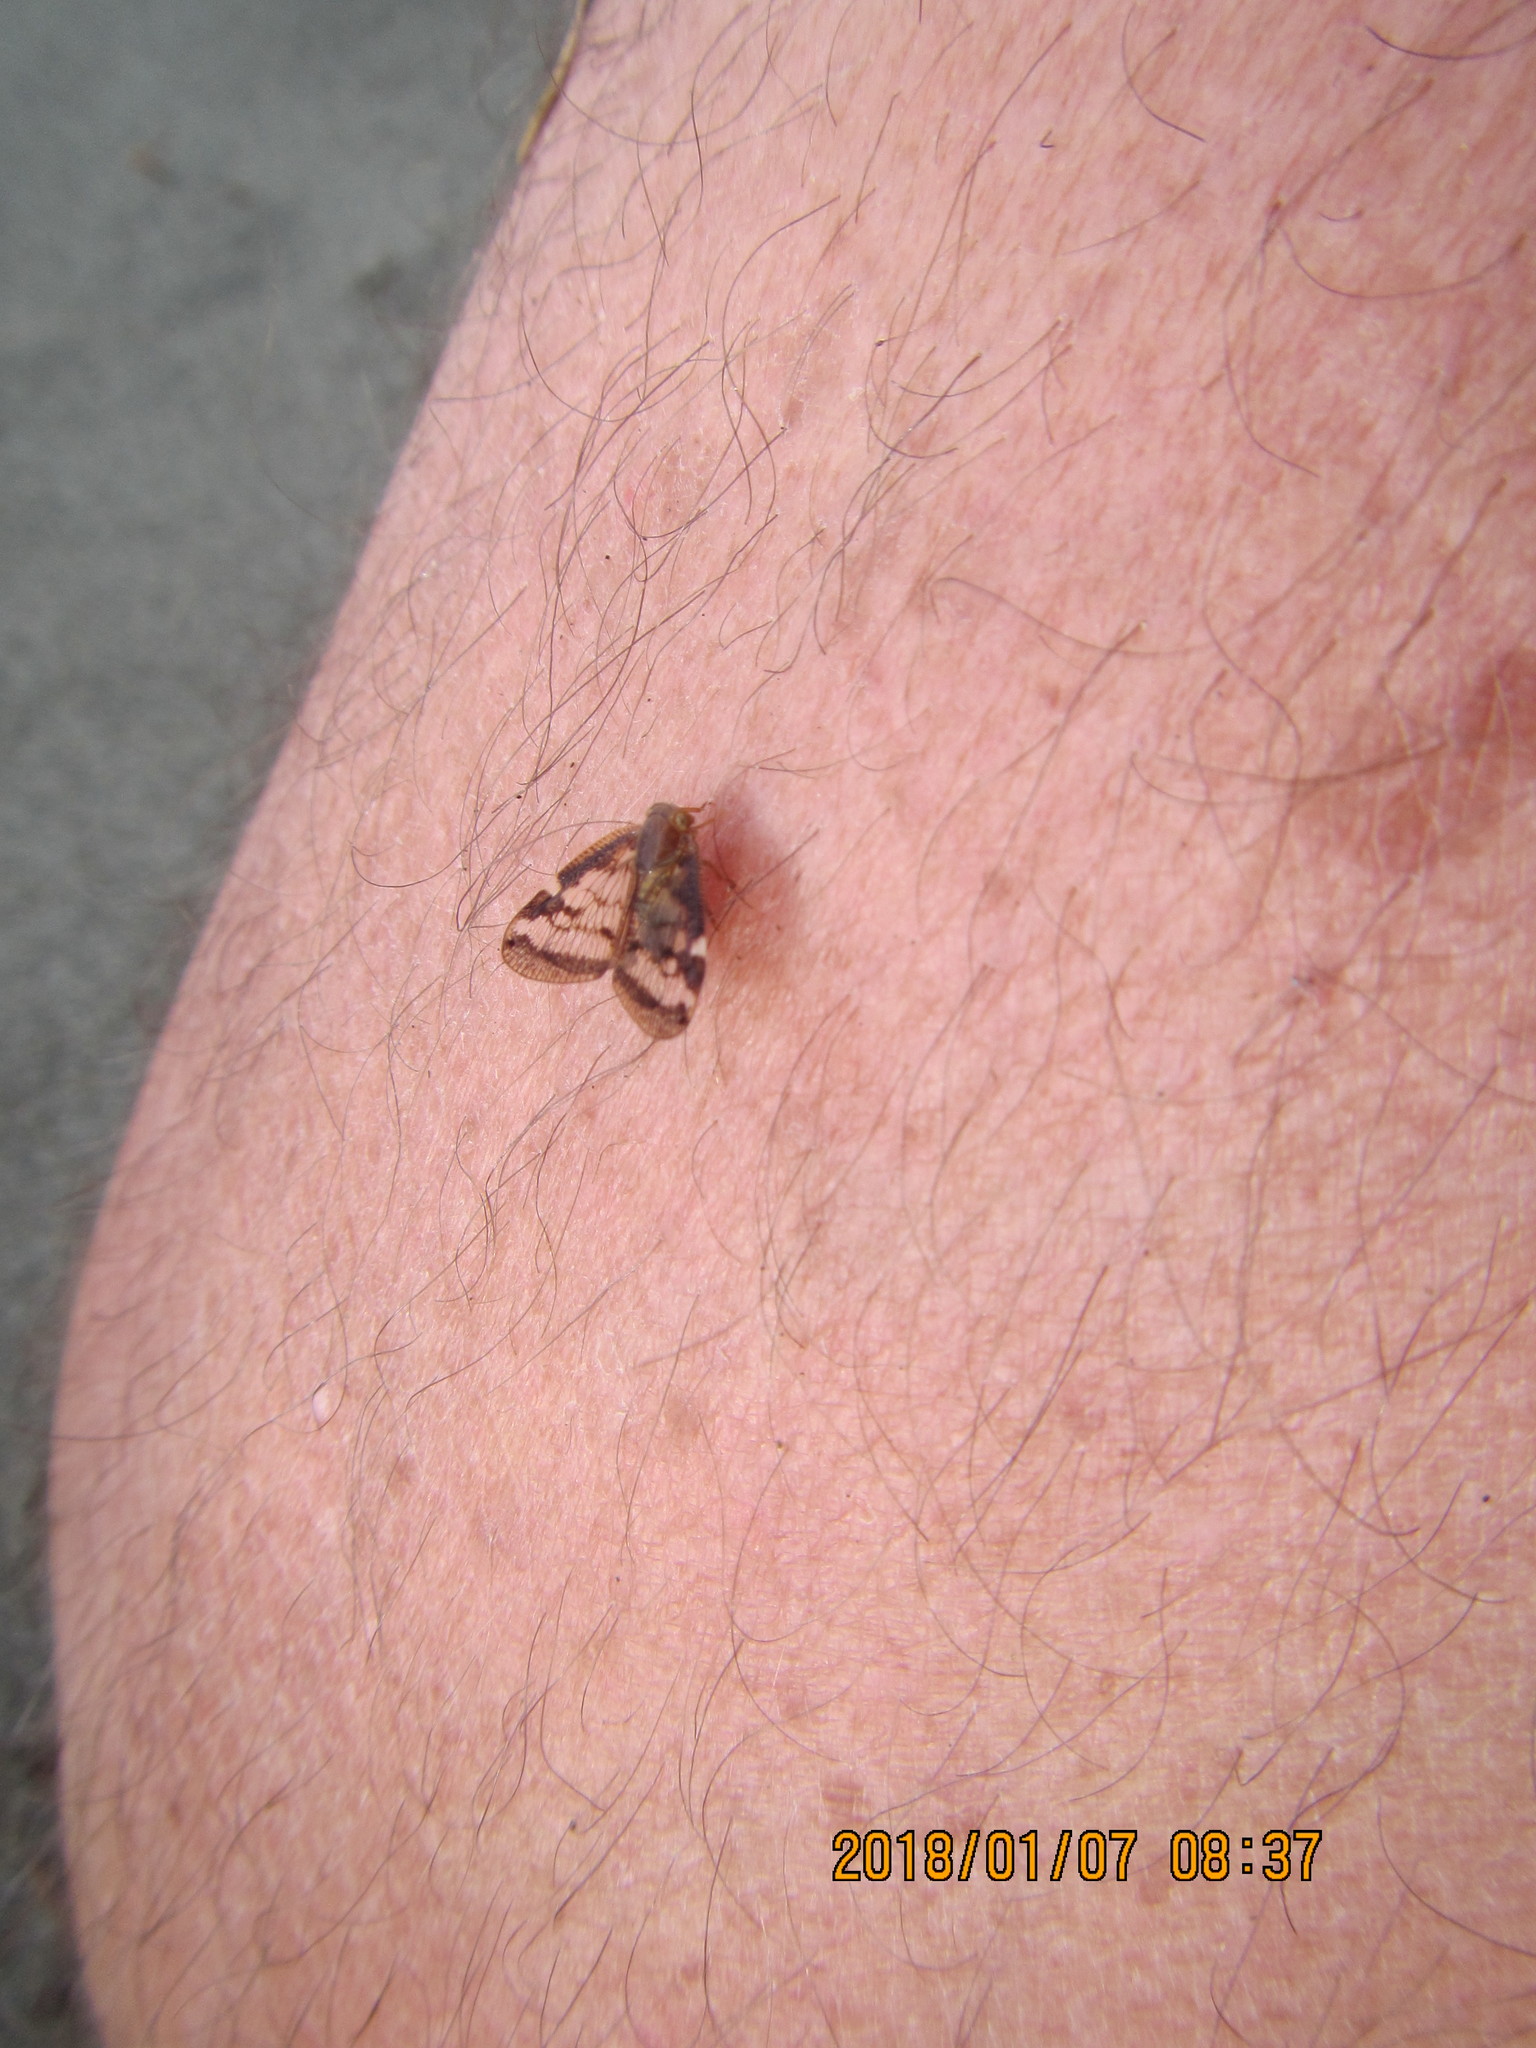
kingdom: Animalia
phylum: Arthropoda
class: Insecta
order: Hemiptera
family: Ricaniidae
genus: Scolypopa
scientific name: Scolypopa australis
